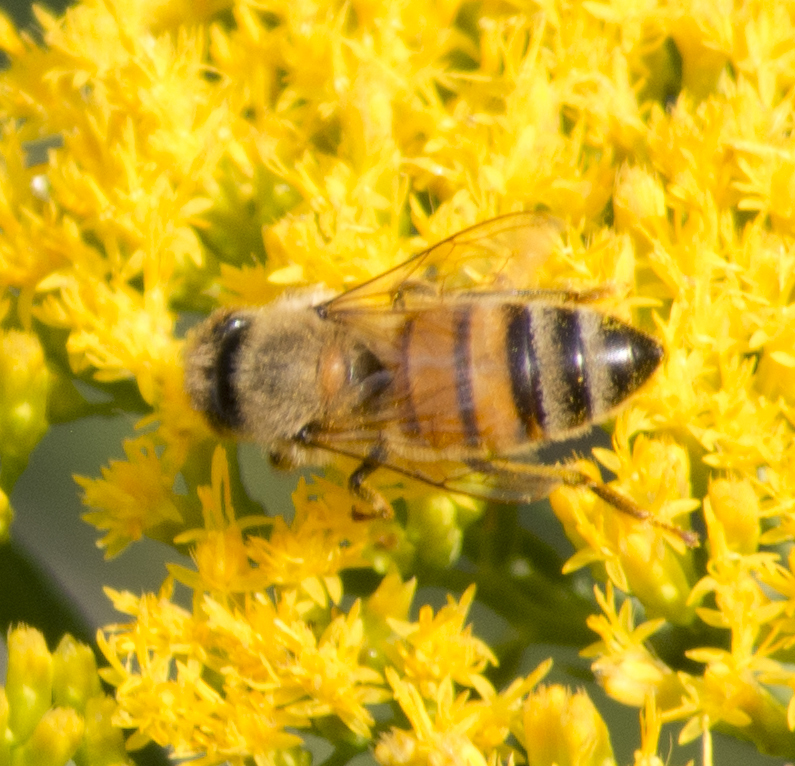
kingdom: Animalia
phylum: Arthropoda
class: Insecta
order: Hymenoptera
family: Apidae
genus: Apis
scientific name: Apis mellifera
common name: Honey bee
